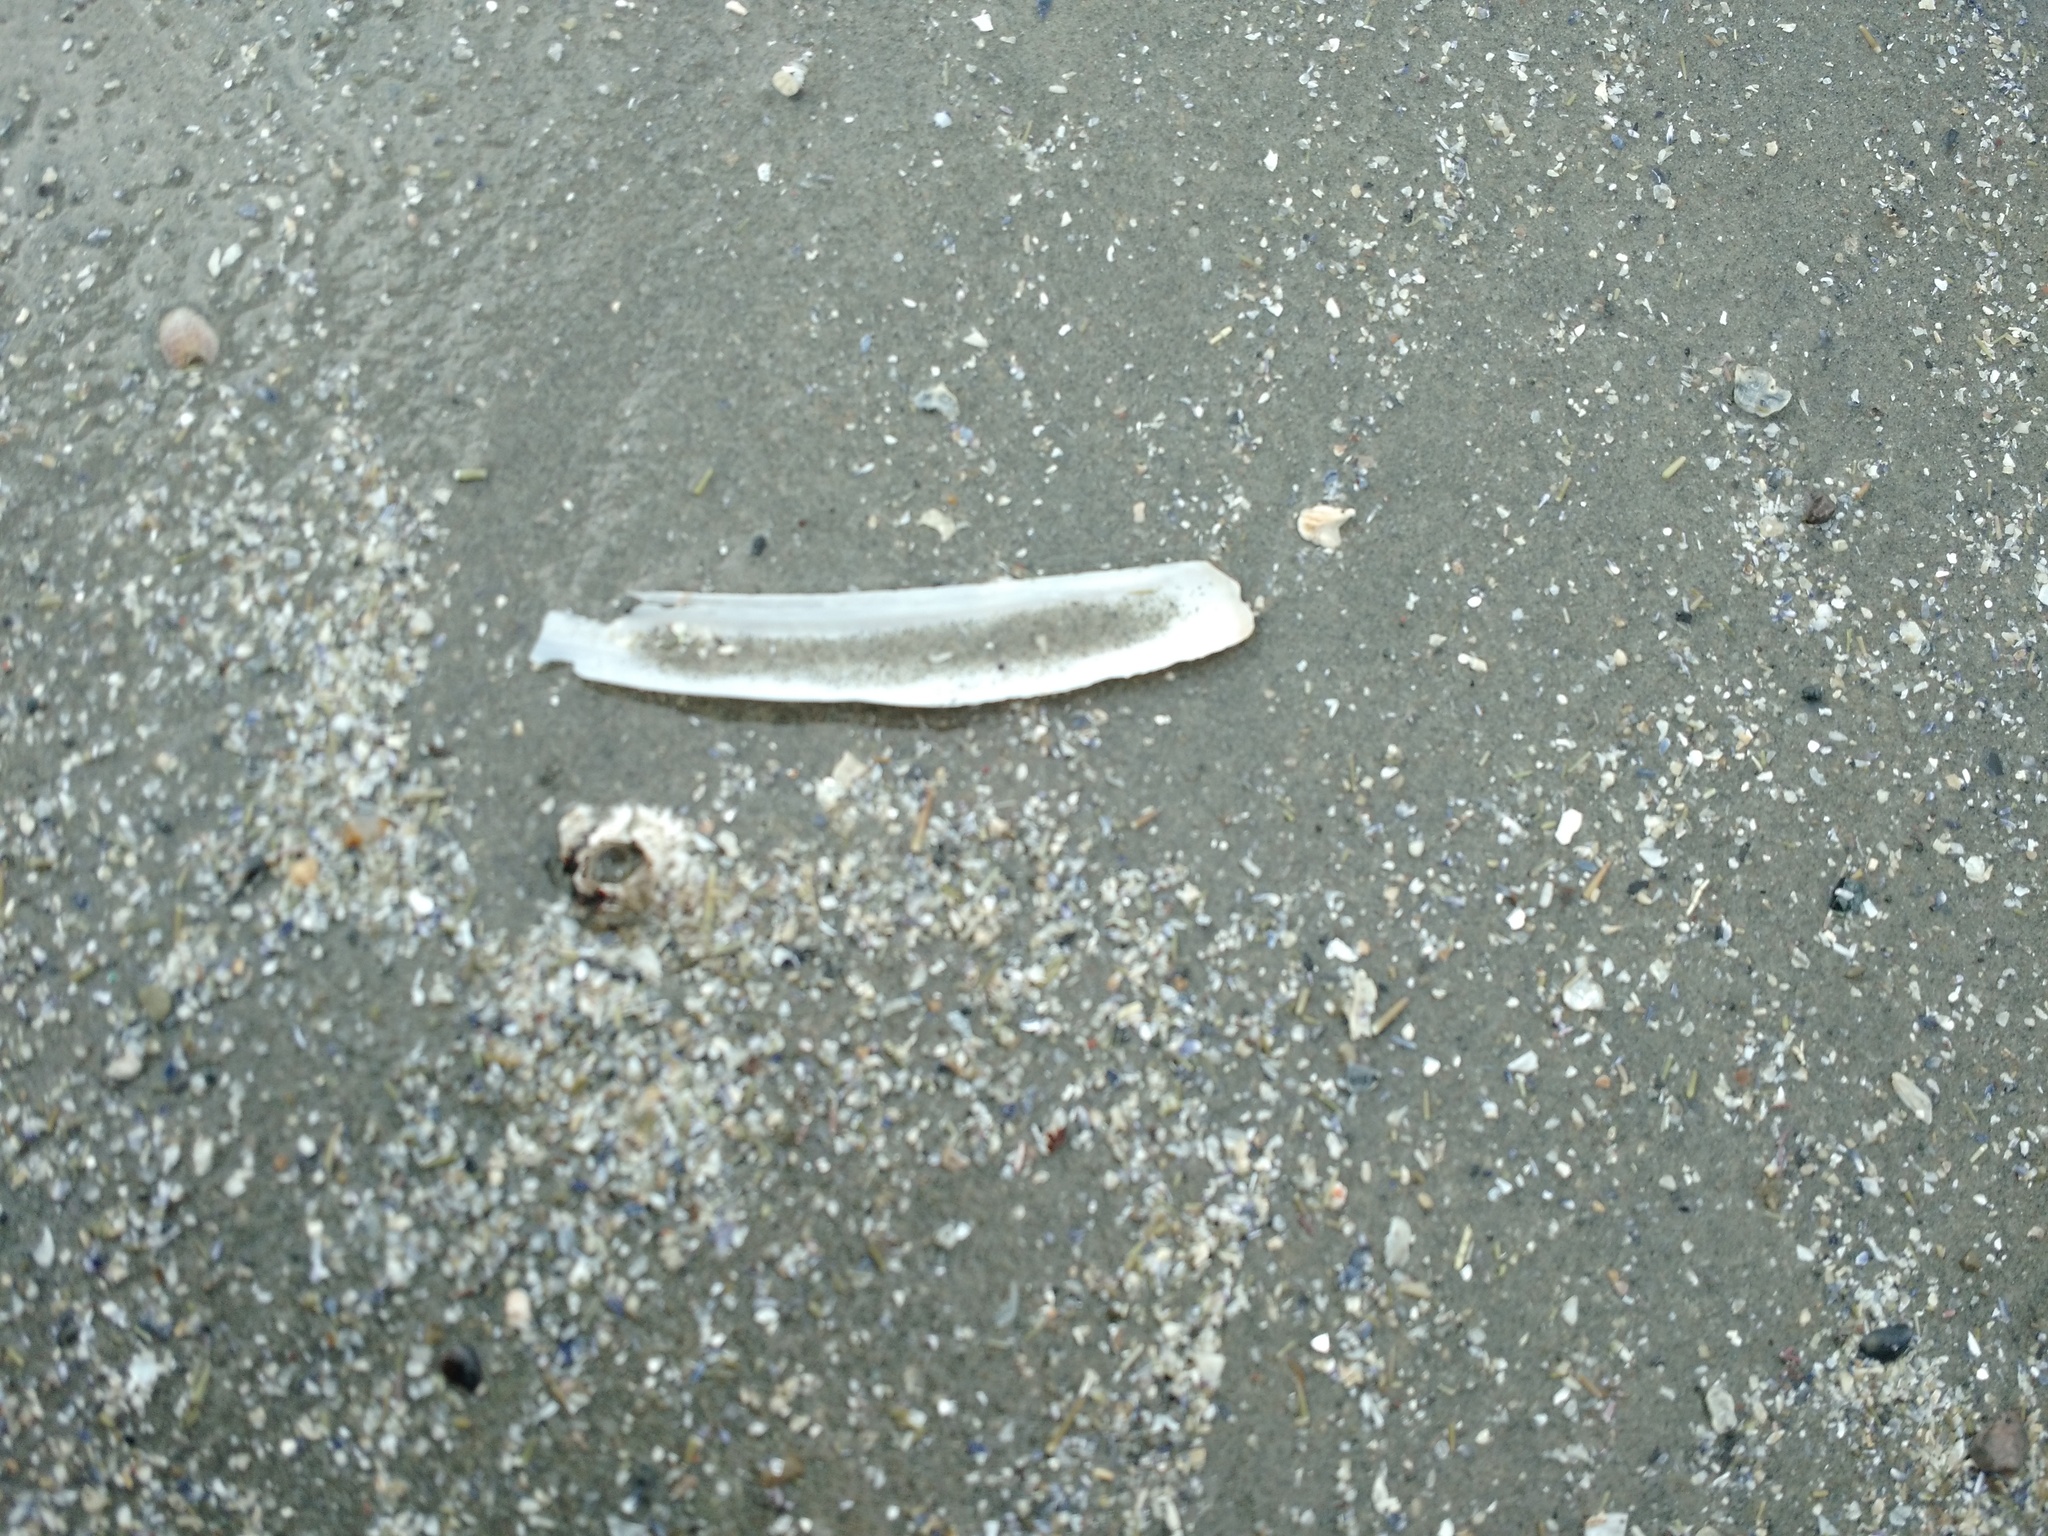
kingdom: Animalia
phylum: Mollusca
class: Bivalvia
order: Adapedonta
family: Pharidae
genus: Ensis
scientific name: Ensis leei
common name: American jack knife clam
